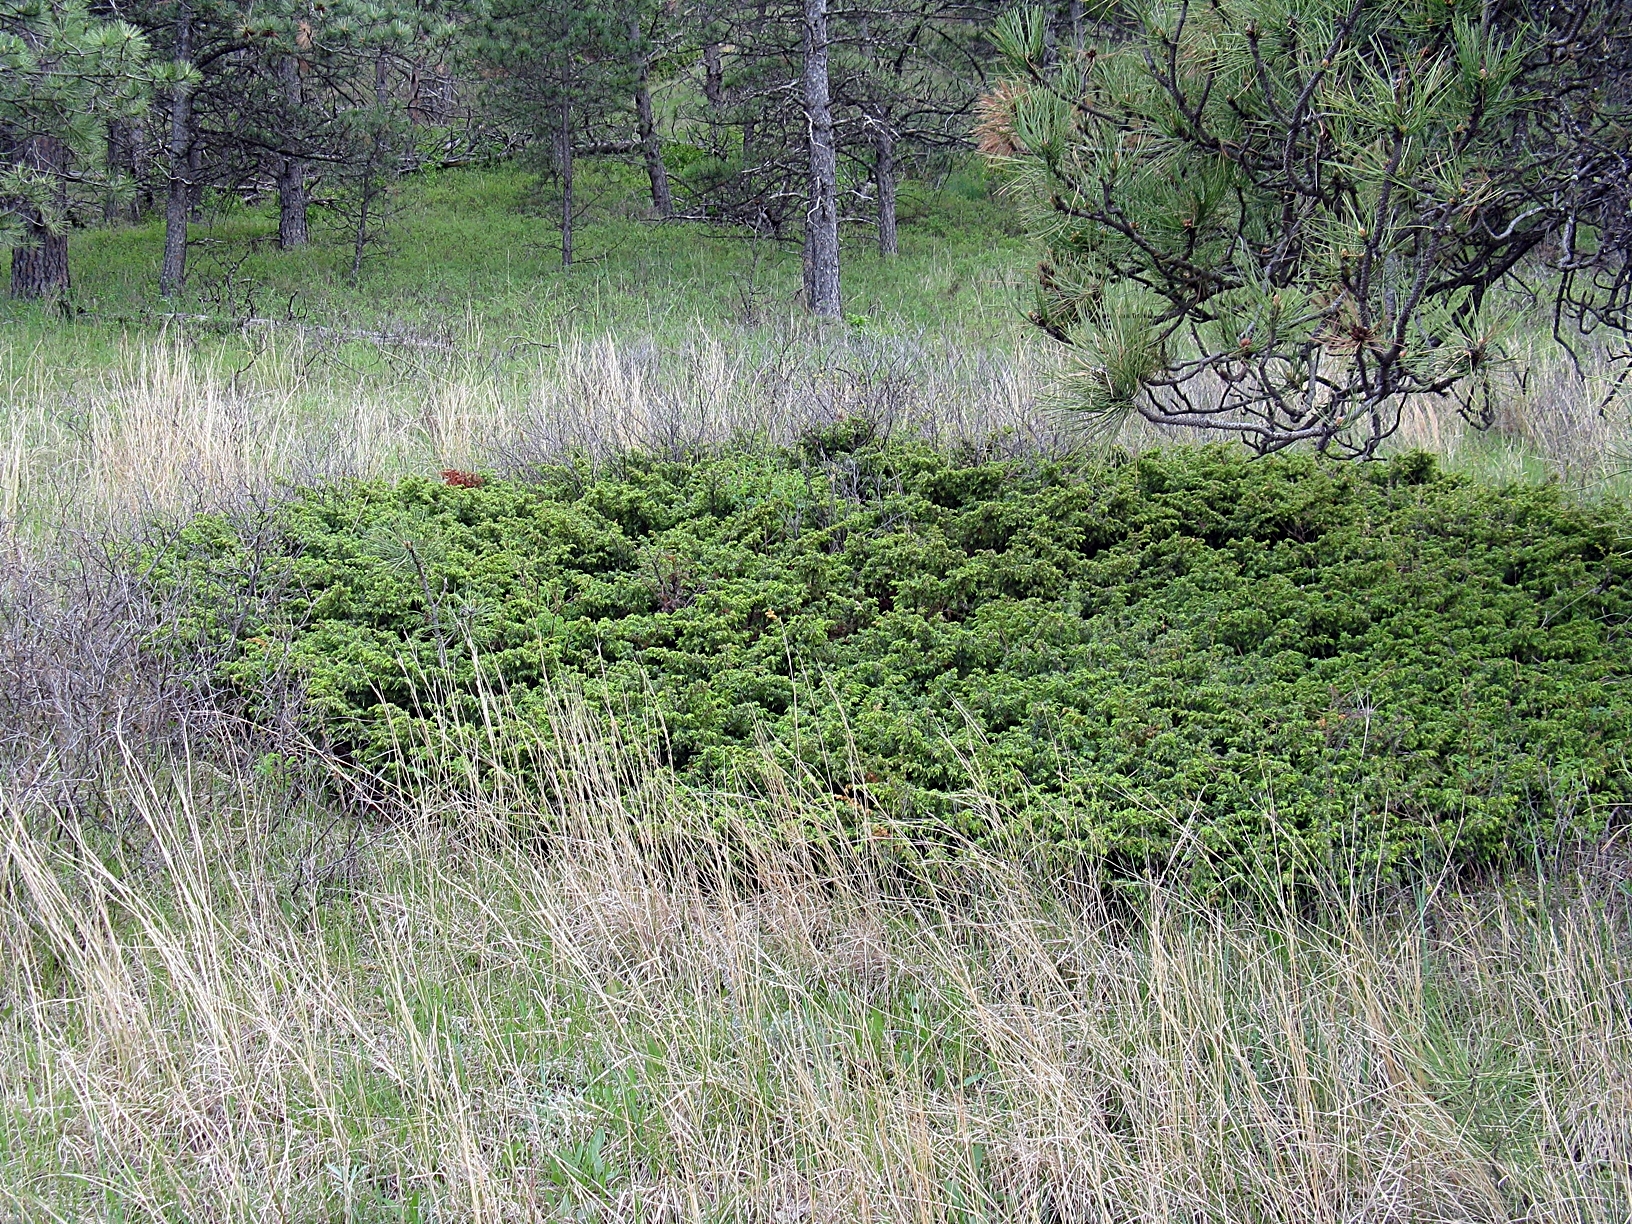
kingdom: Plantae
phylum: Tracheophyta
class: Pinopsida
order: Pinales
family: Cupressaceae
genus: Juniperus
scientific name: Juniperus communis
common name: Common juniper
